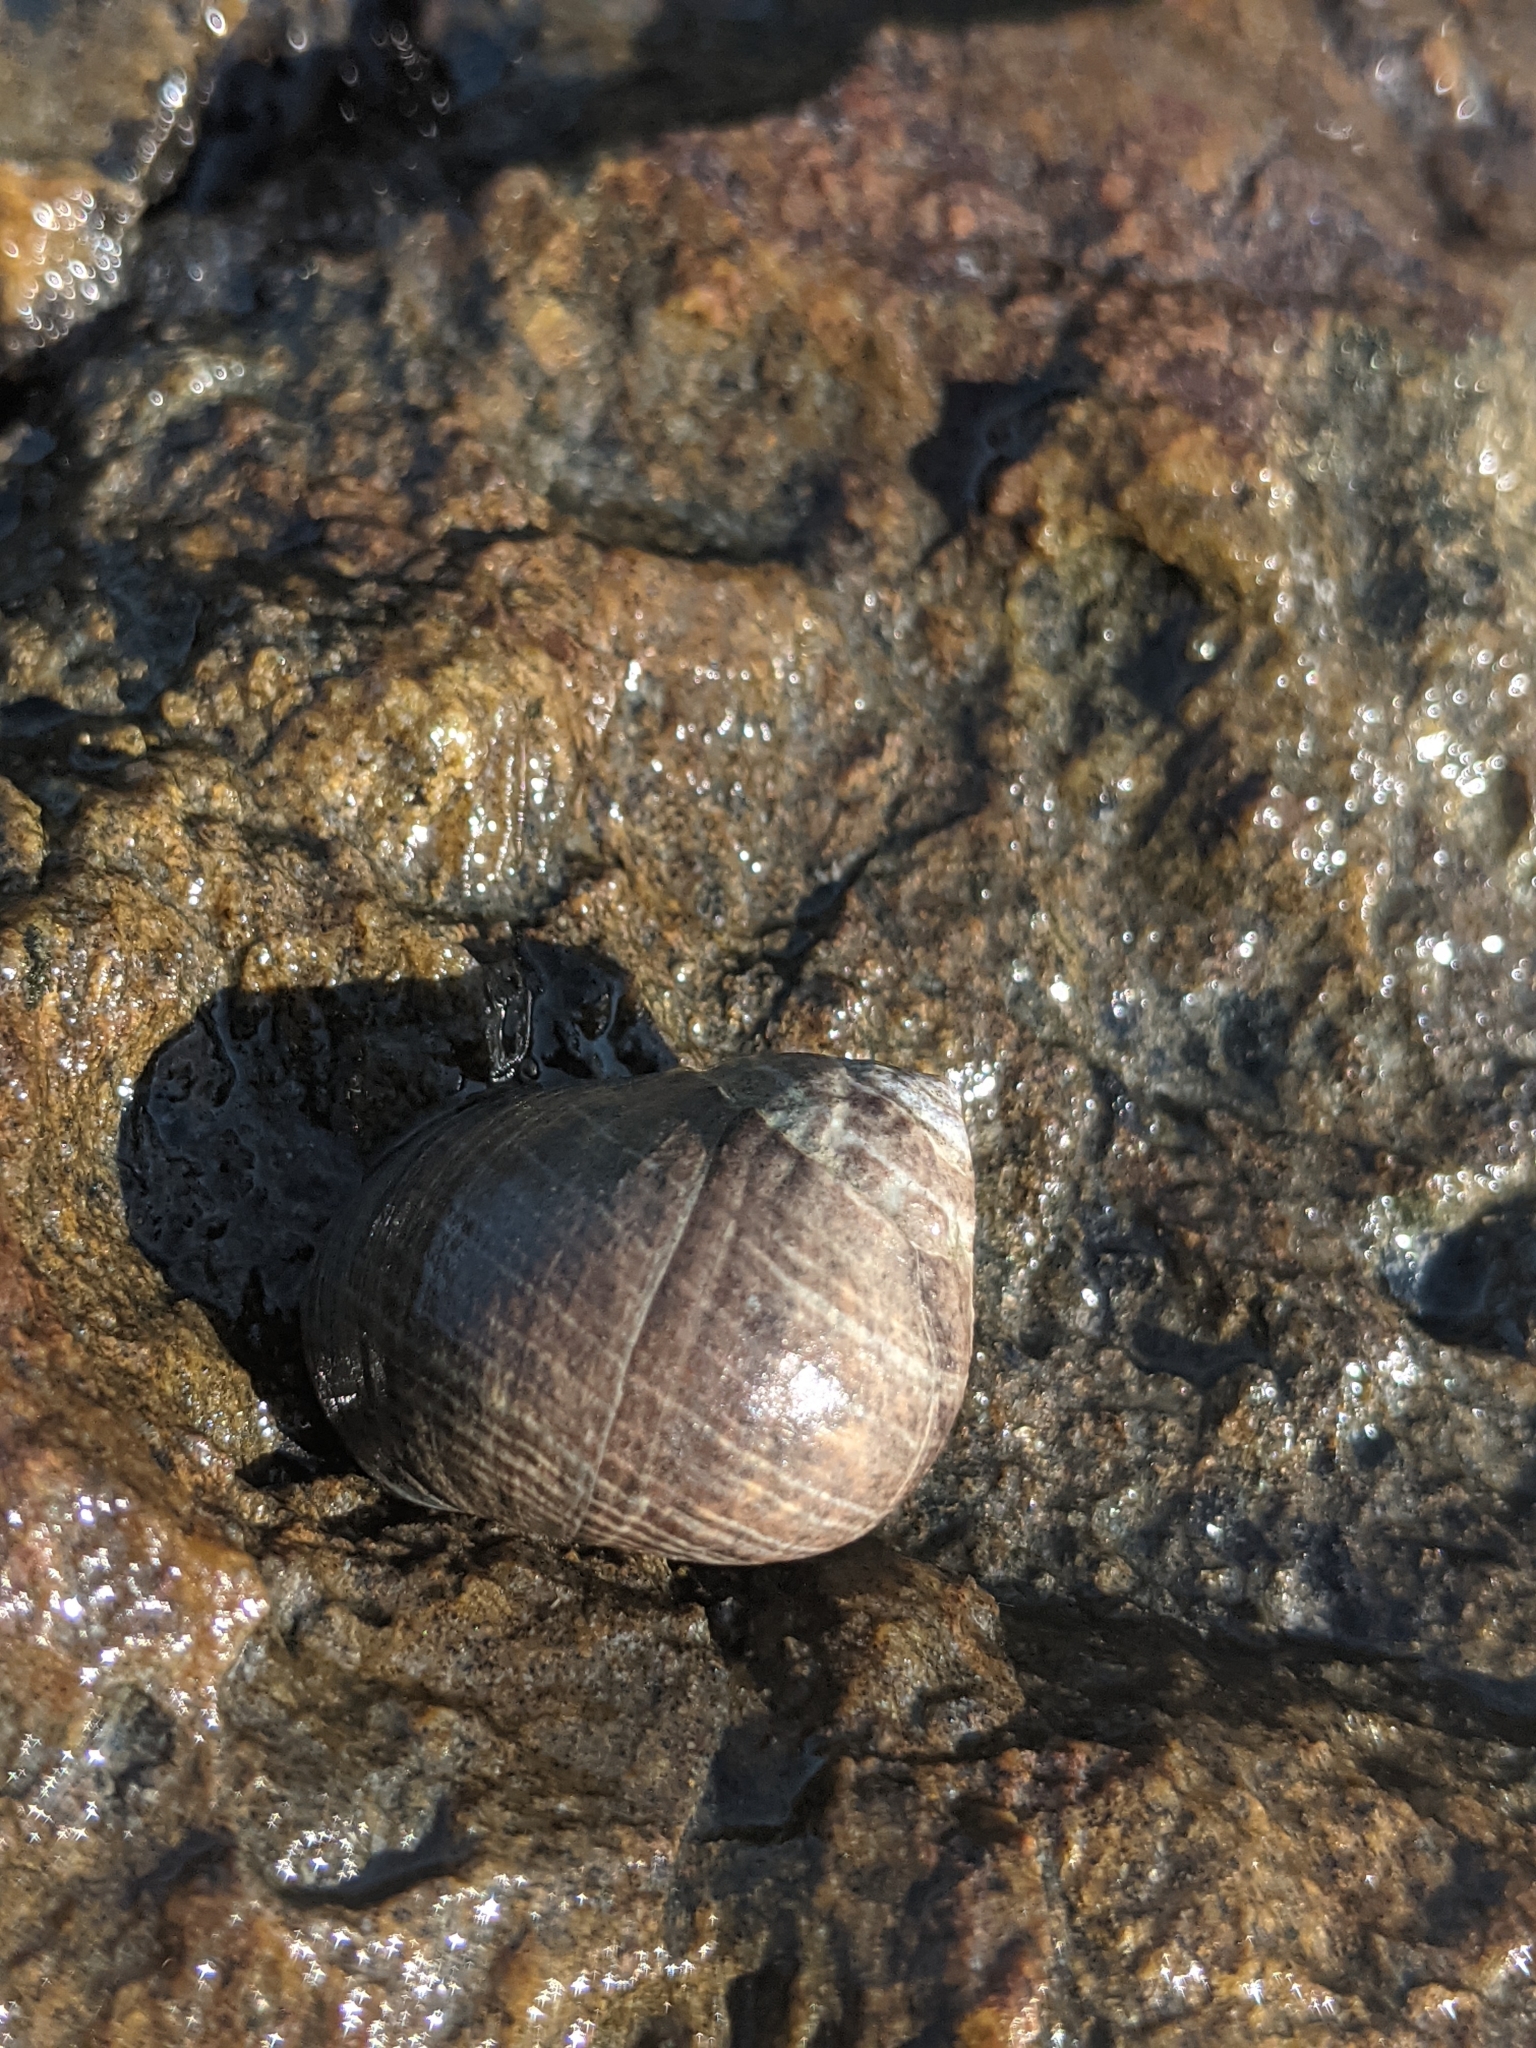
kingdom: Animalia
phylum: Mollusca
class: Gastropoda
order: Littorinimorpha
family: Littorinidae
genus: Littorina
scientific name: Littorina littorea
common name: Common periwinkle
